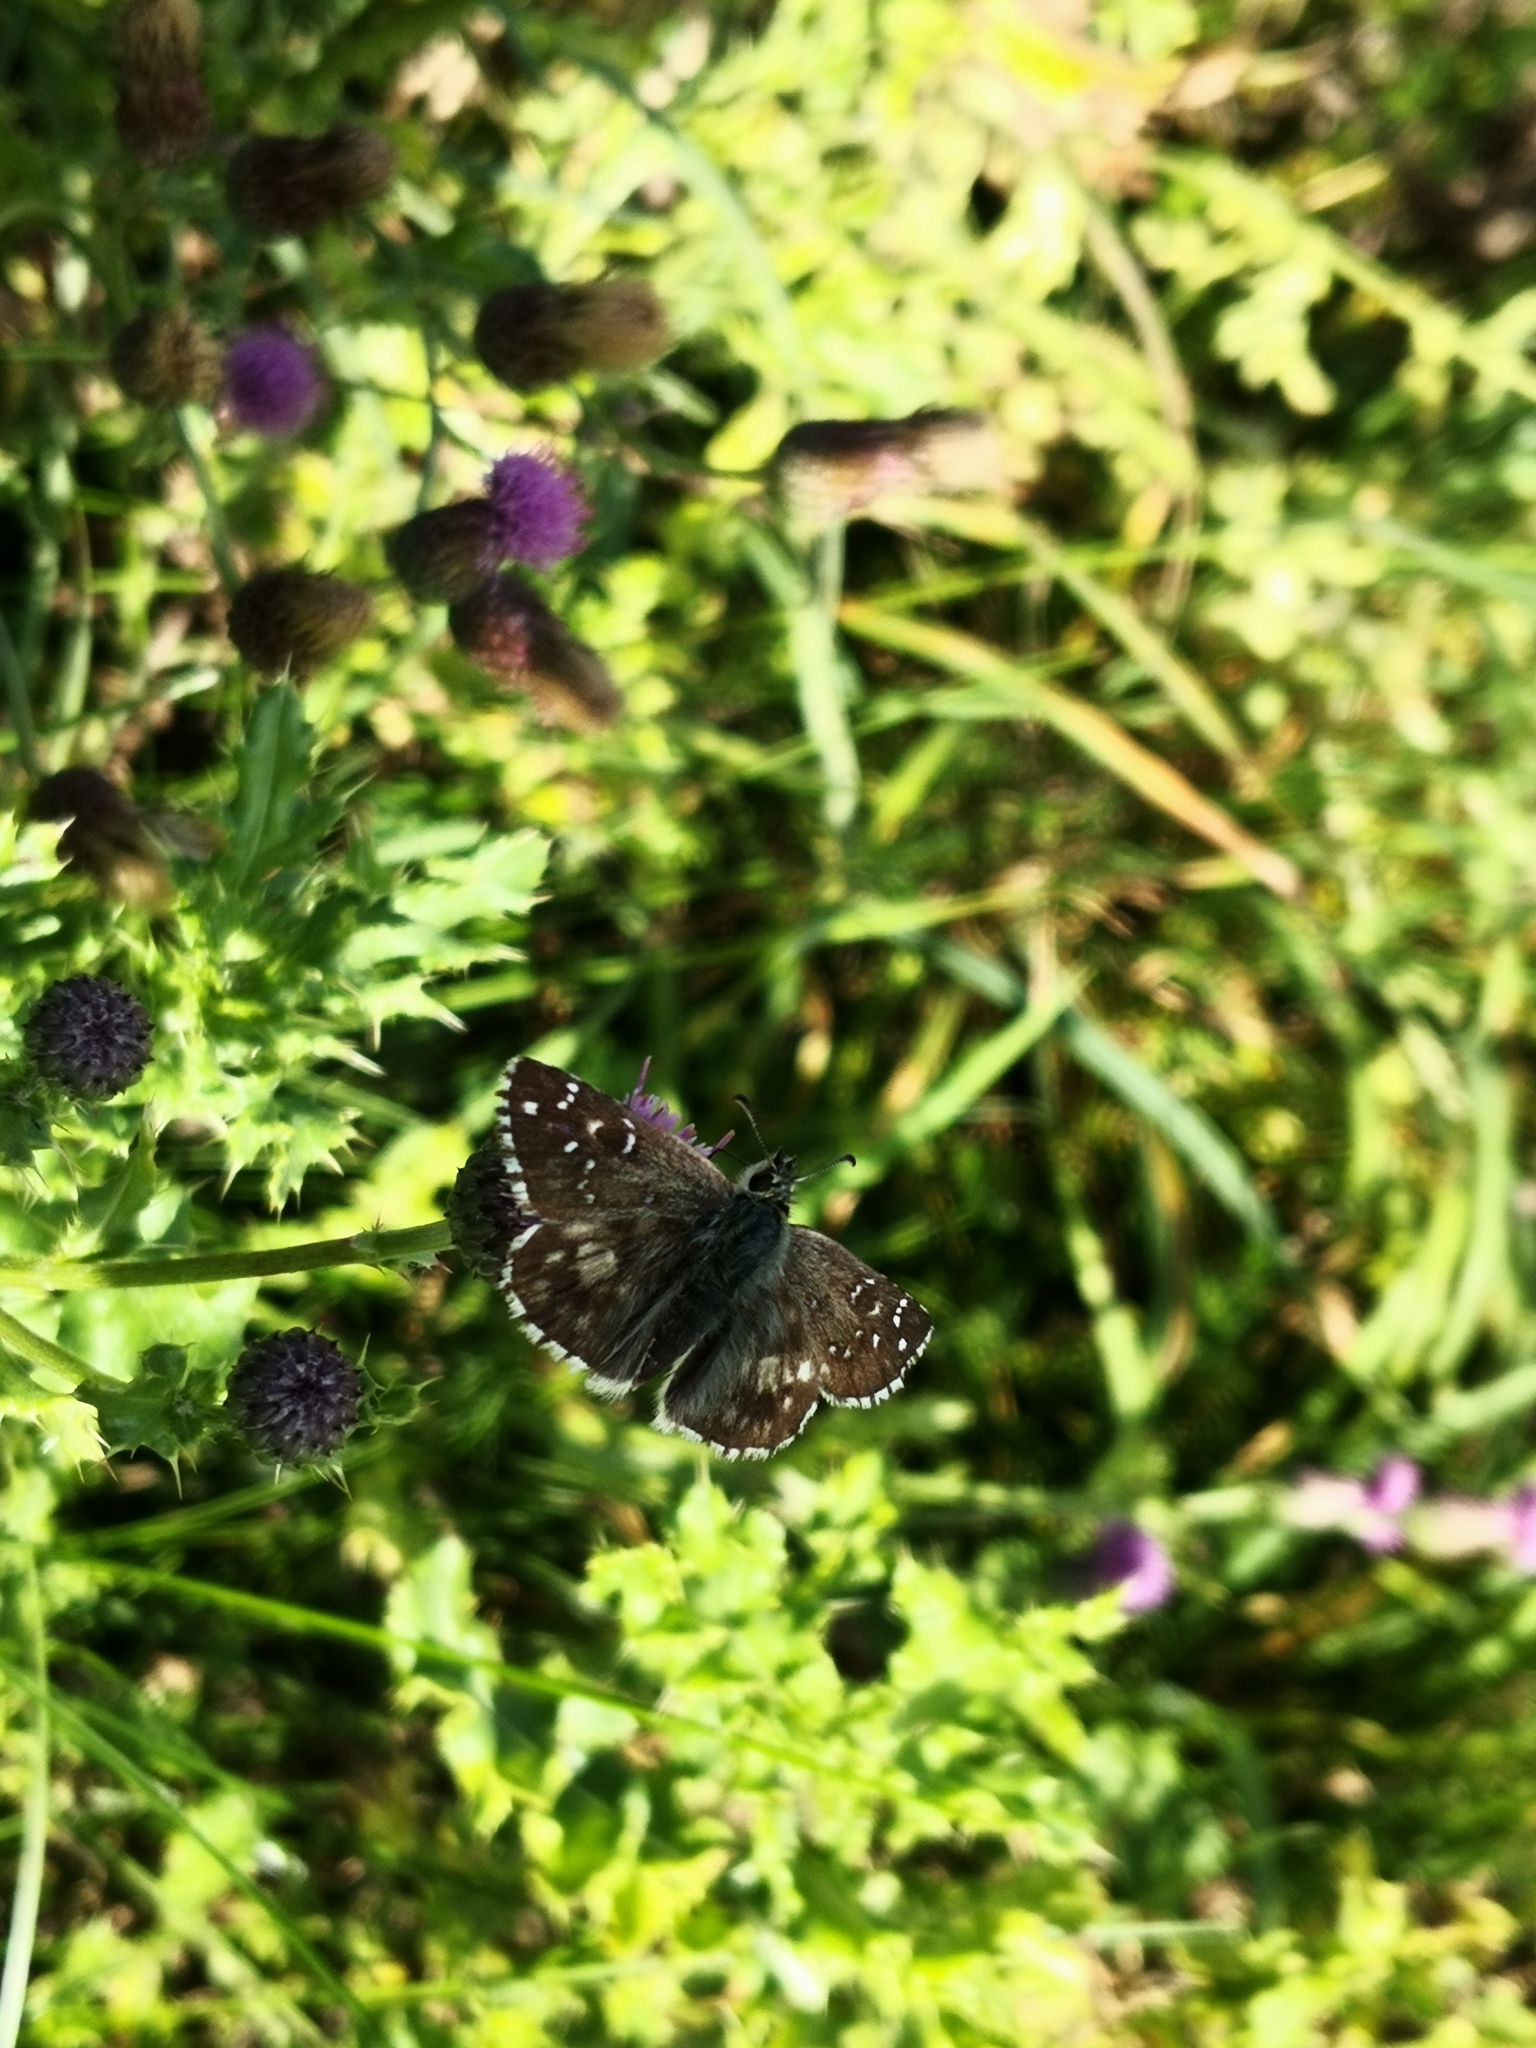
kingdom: Animalia
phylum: Arthropoda
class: Insecta
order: Lepidoptera
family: Hesperiidae
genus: Pyrgus
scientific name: Pyrgus armoricanus
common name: Oberthür's grizzled skipper
